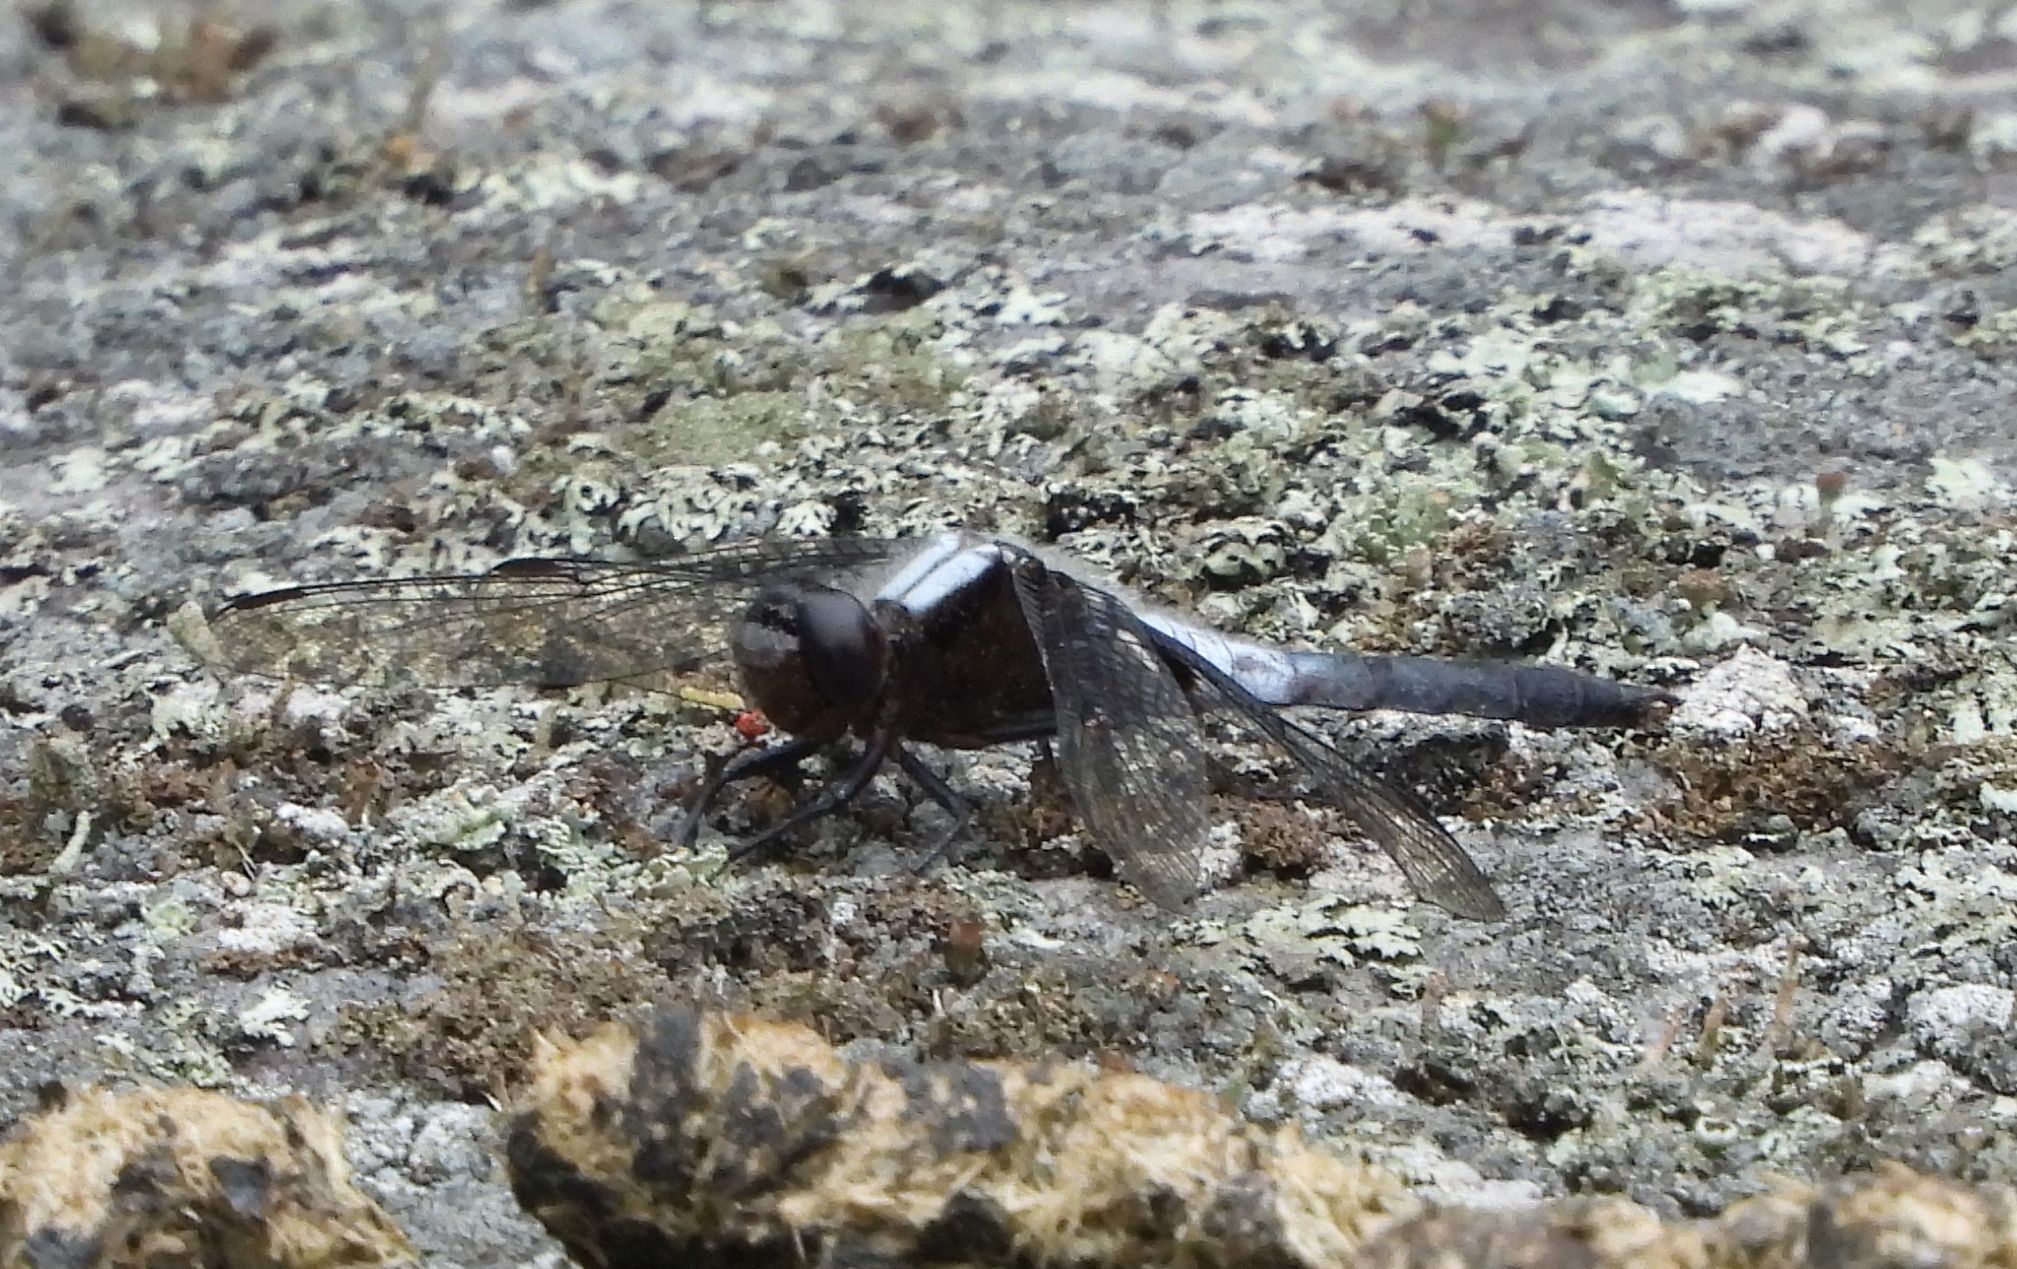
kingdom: Animalia
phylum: Arthropoda
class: Insecta
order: Odonata
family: Libellulidae
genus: Ladona
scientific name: Ladona julia
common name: Chalk-fronted corporal
